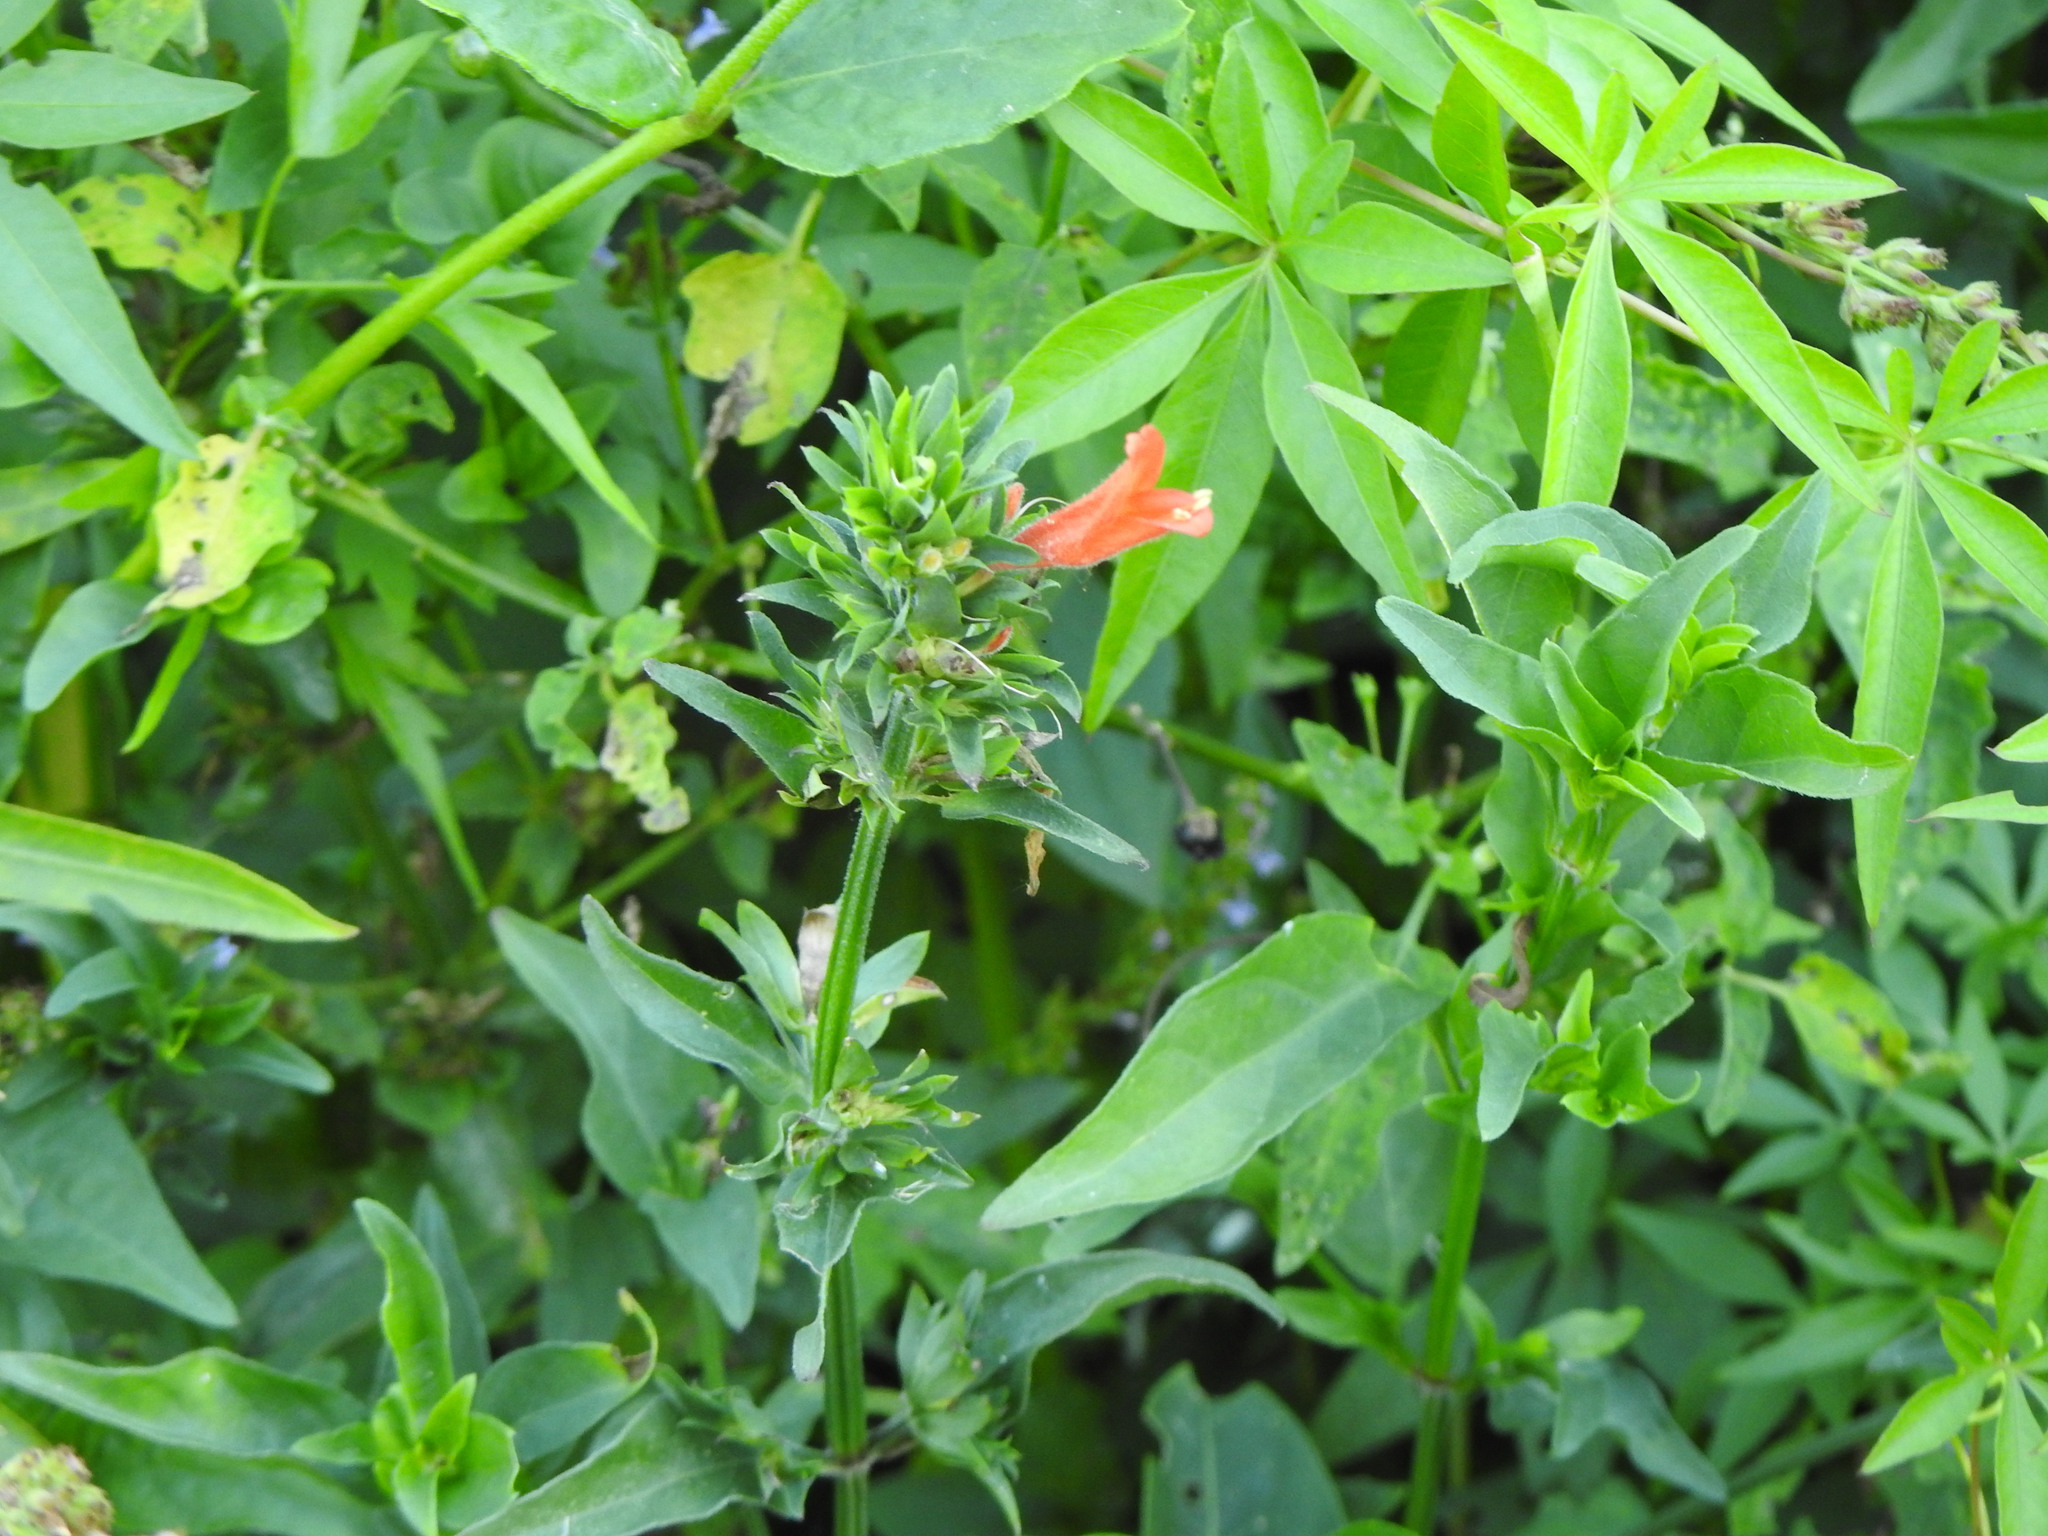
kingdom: Plantae
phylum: Tracheophyta
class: Magnoliopsida
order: Lamiales
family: Acanthaceae
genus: Dicliptera
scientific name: Dicliptera squarrosa
